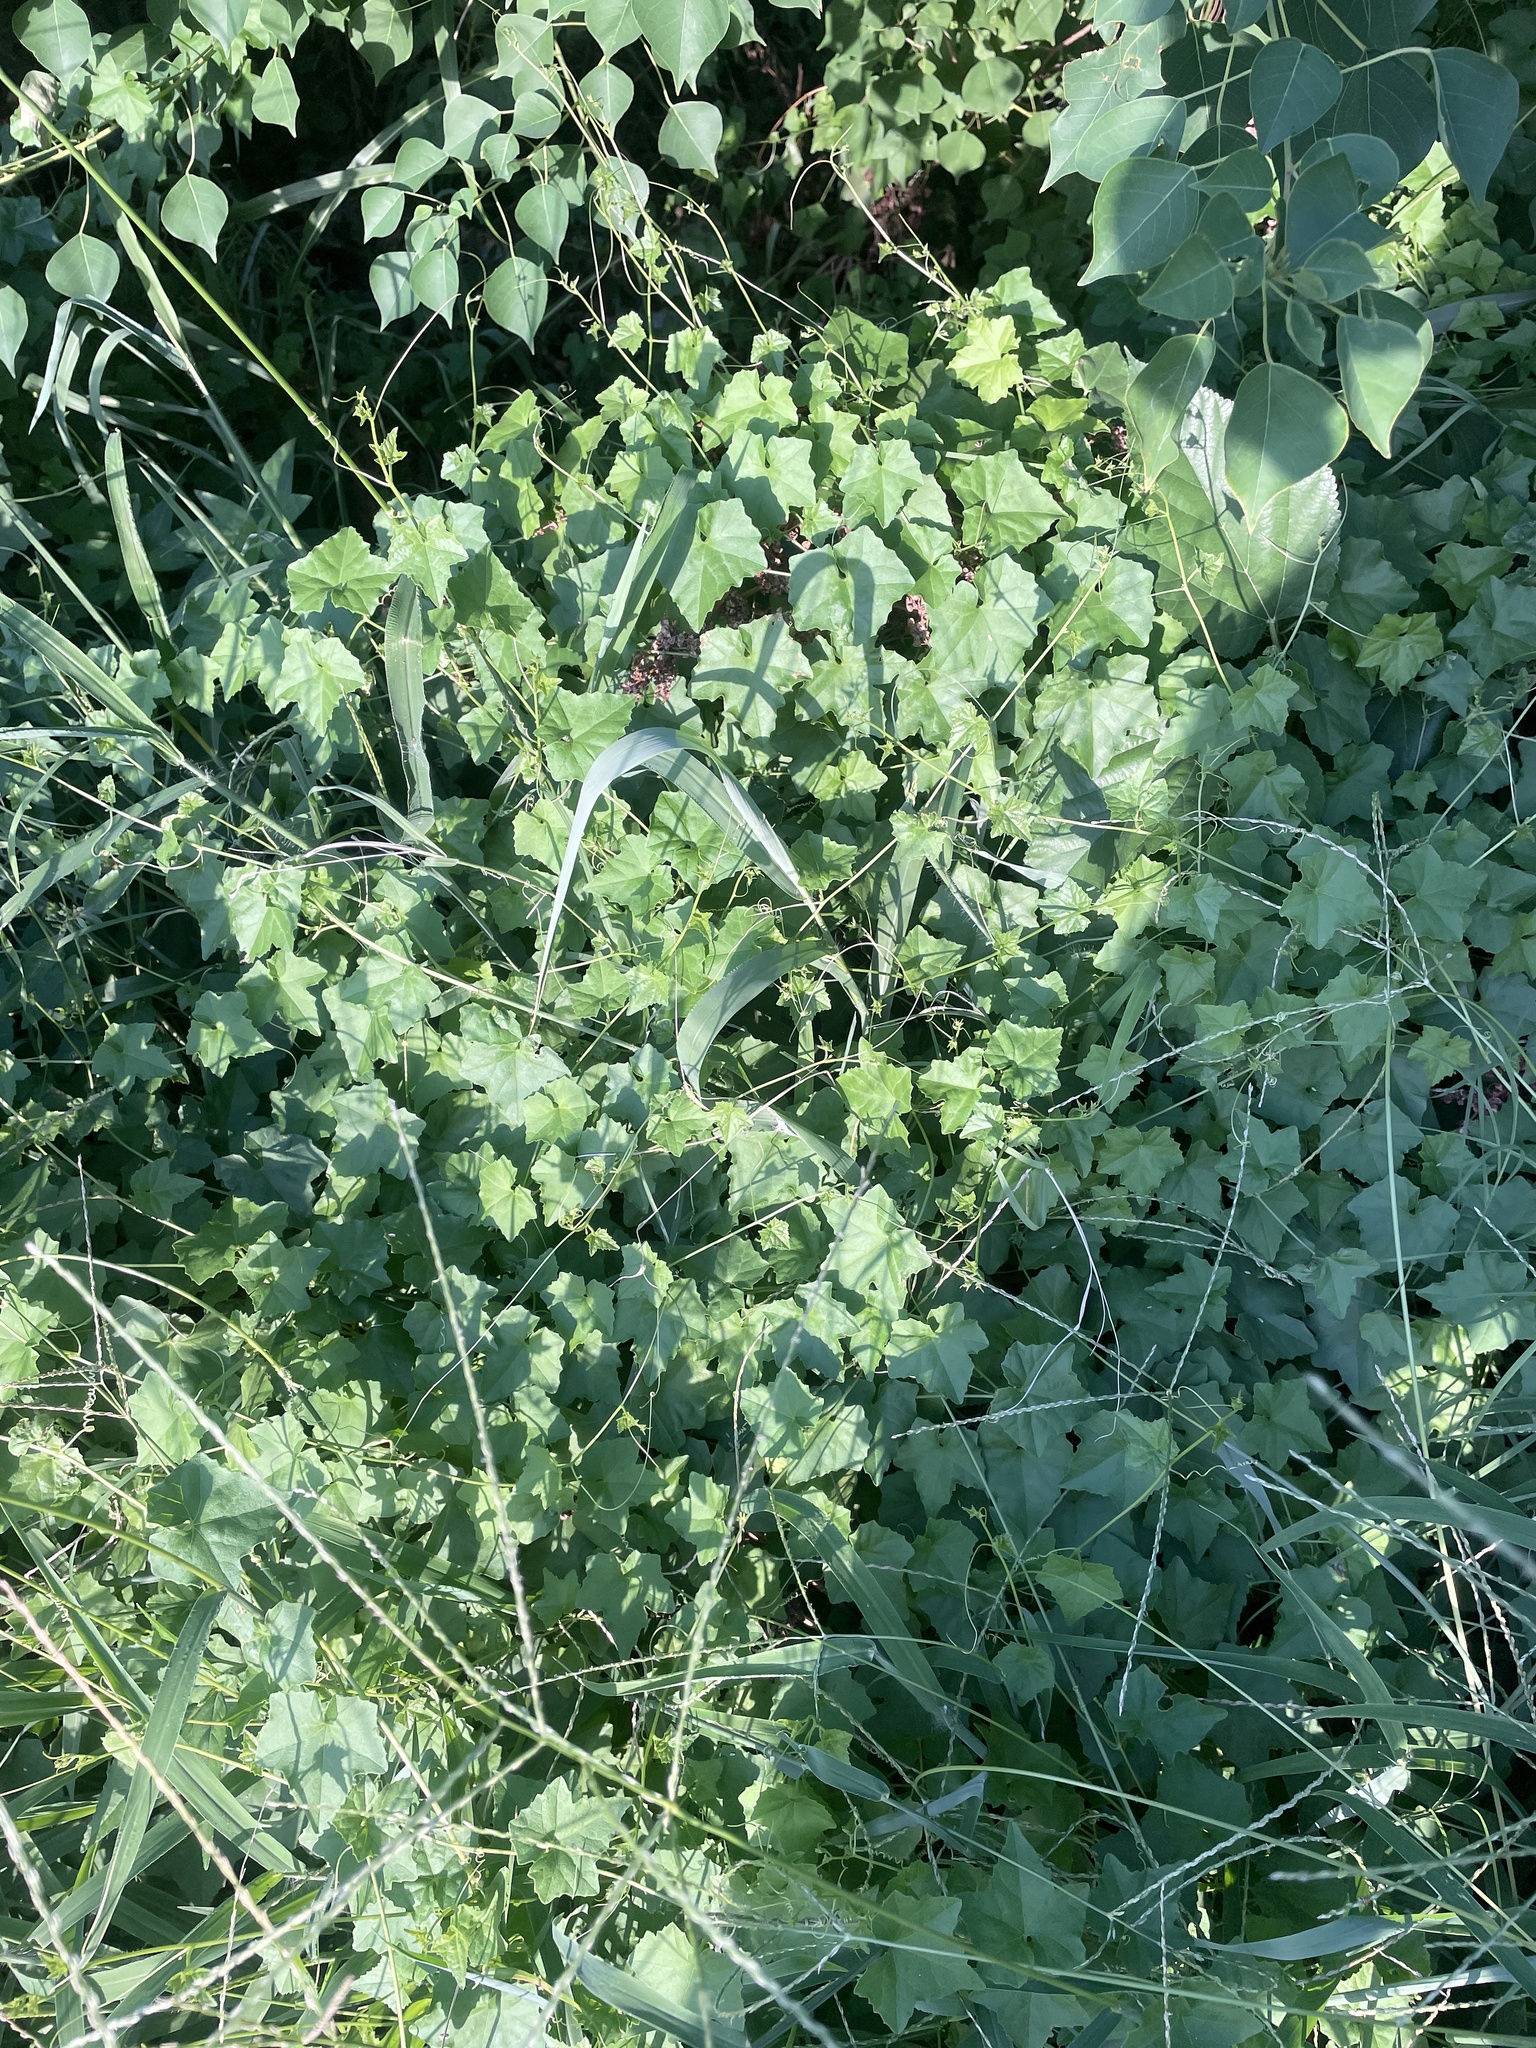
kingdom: Plantae
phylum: Tracheophyta
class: Magnoliopsida
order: Cucurbitales
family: Cucurbitaceae
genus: Melothria
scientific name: Melothria pendula
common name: Creeping-cucumber
